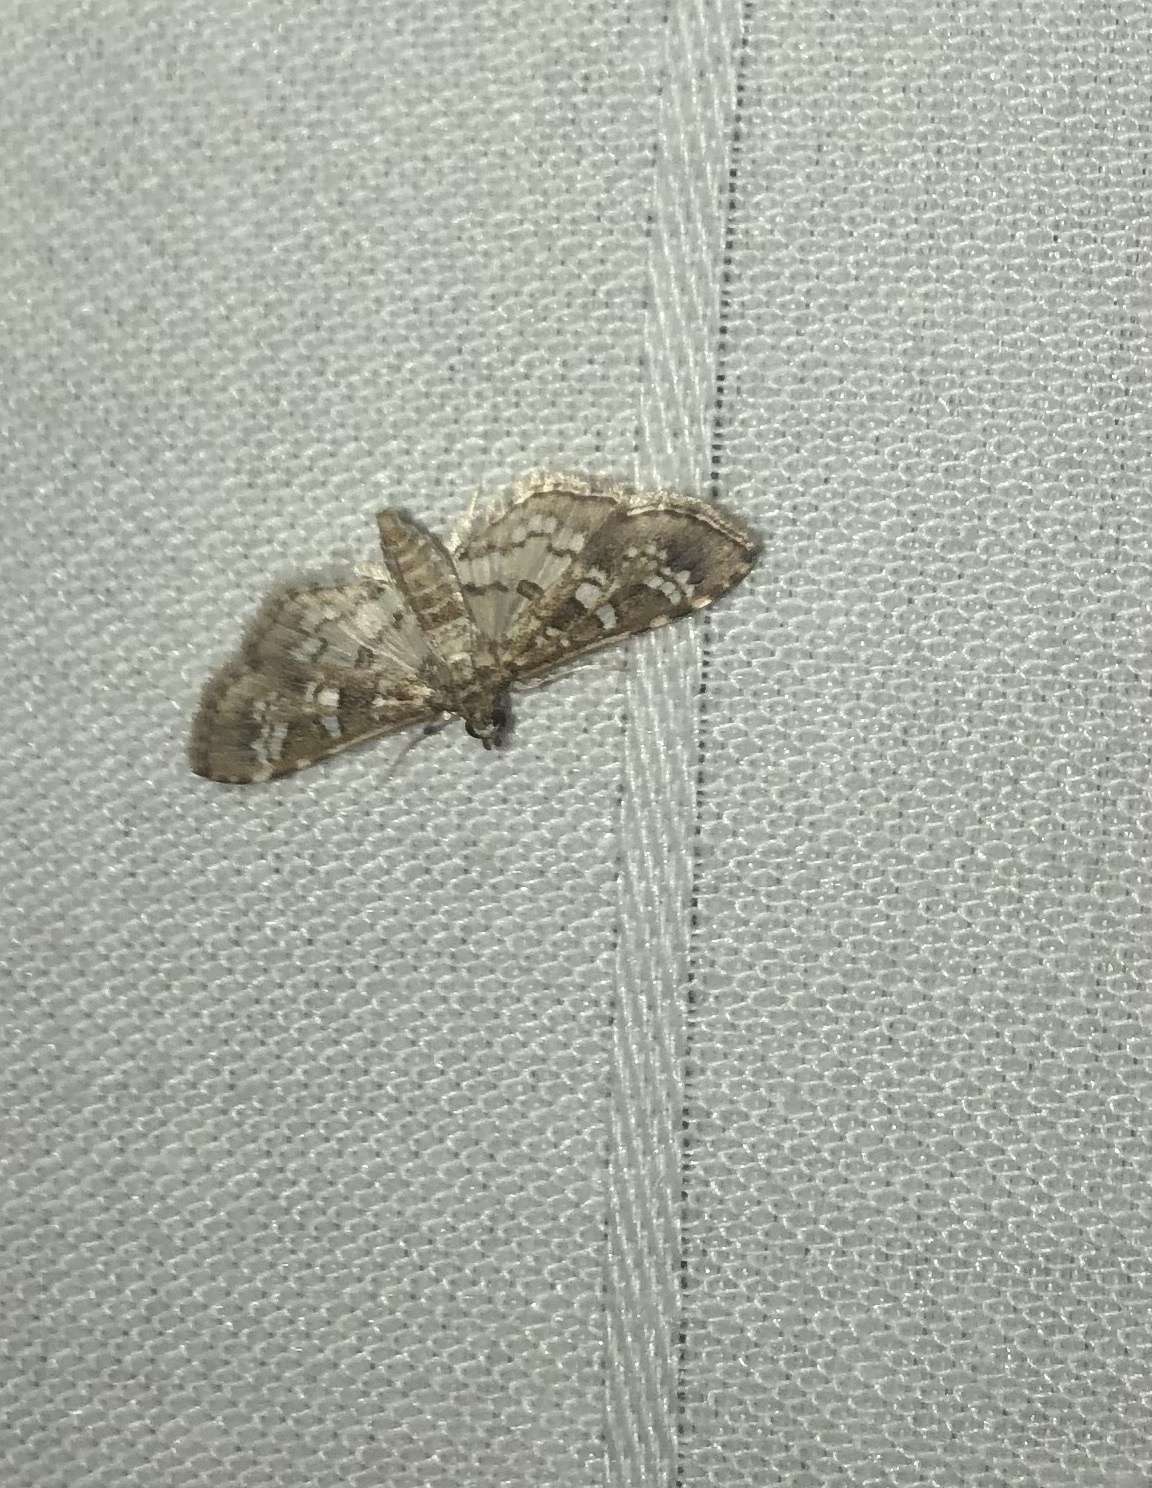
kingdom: Animalia
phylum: Arthropoda
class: Insecta
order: Lepidoptera
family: Crambidae
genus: Samea
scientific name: Samea multiplicalis
